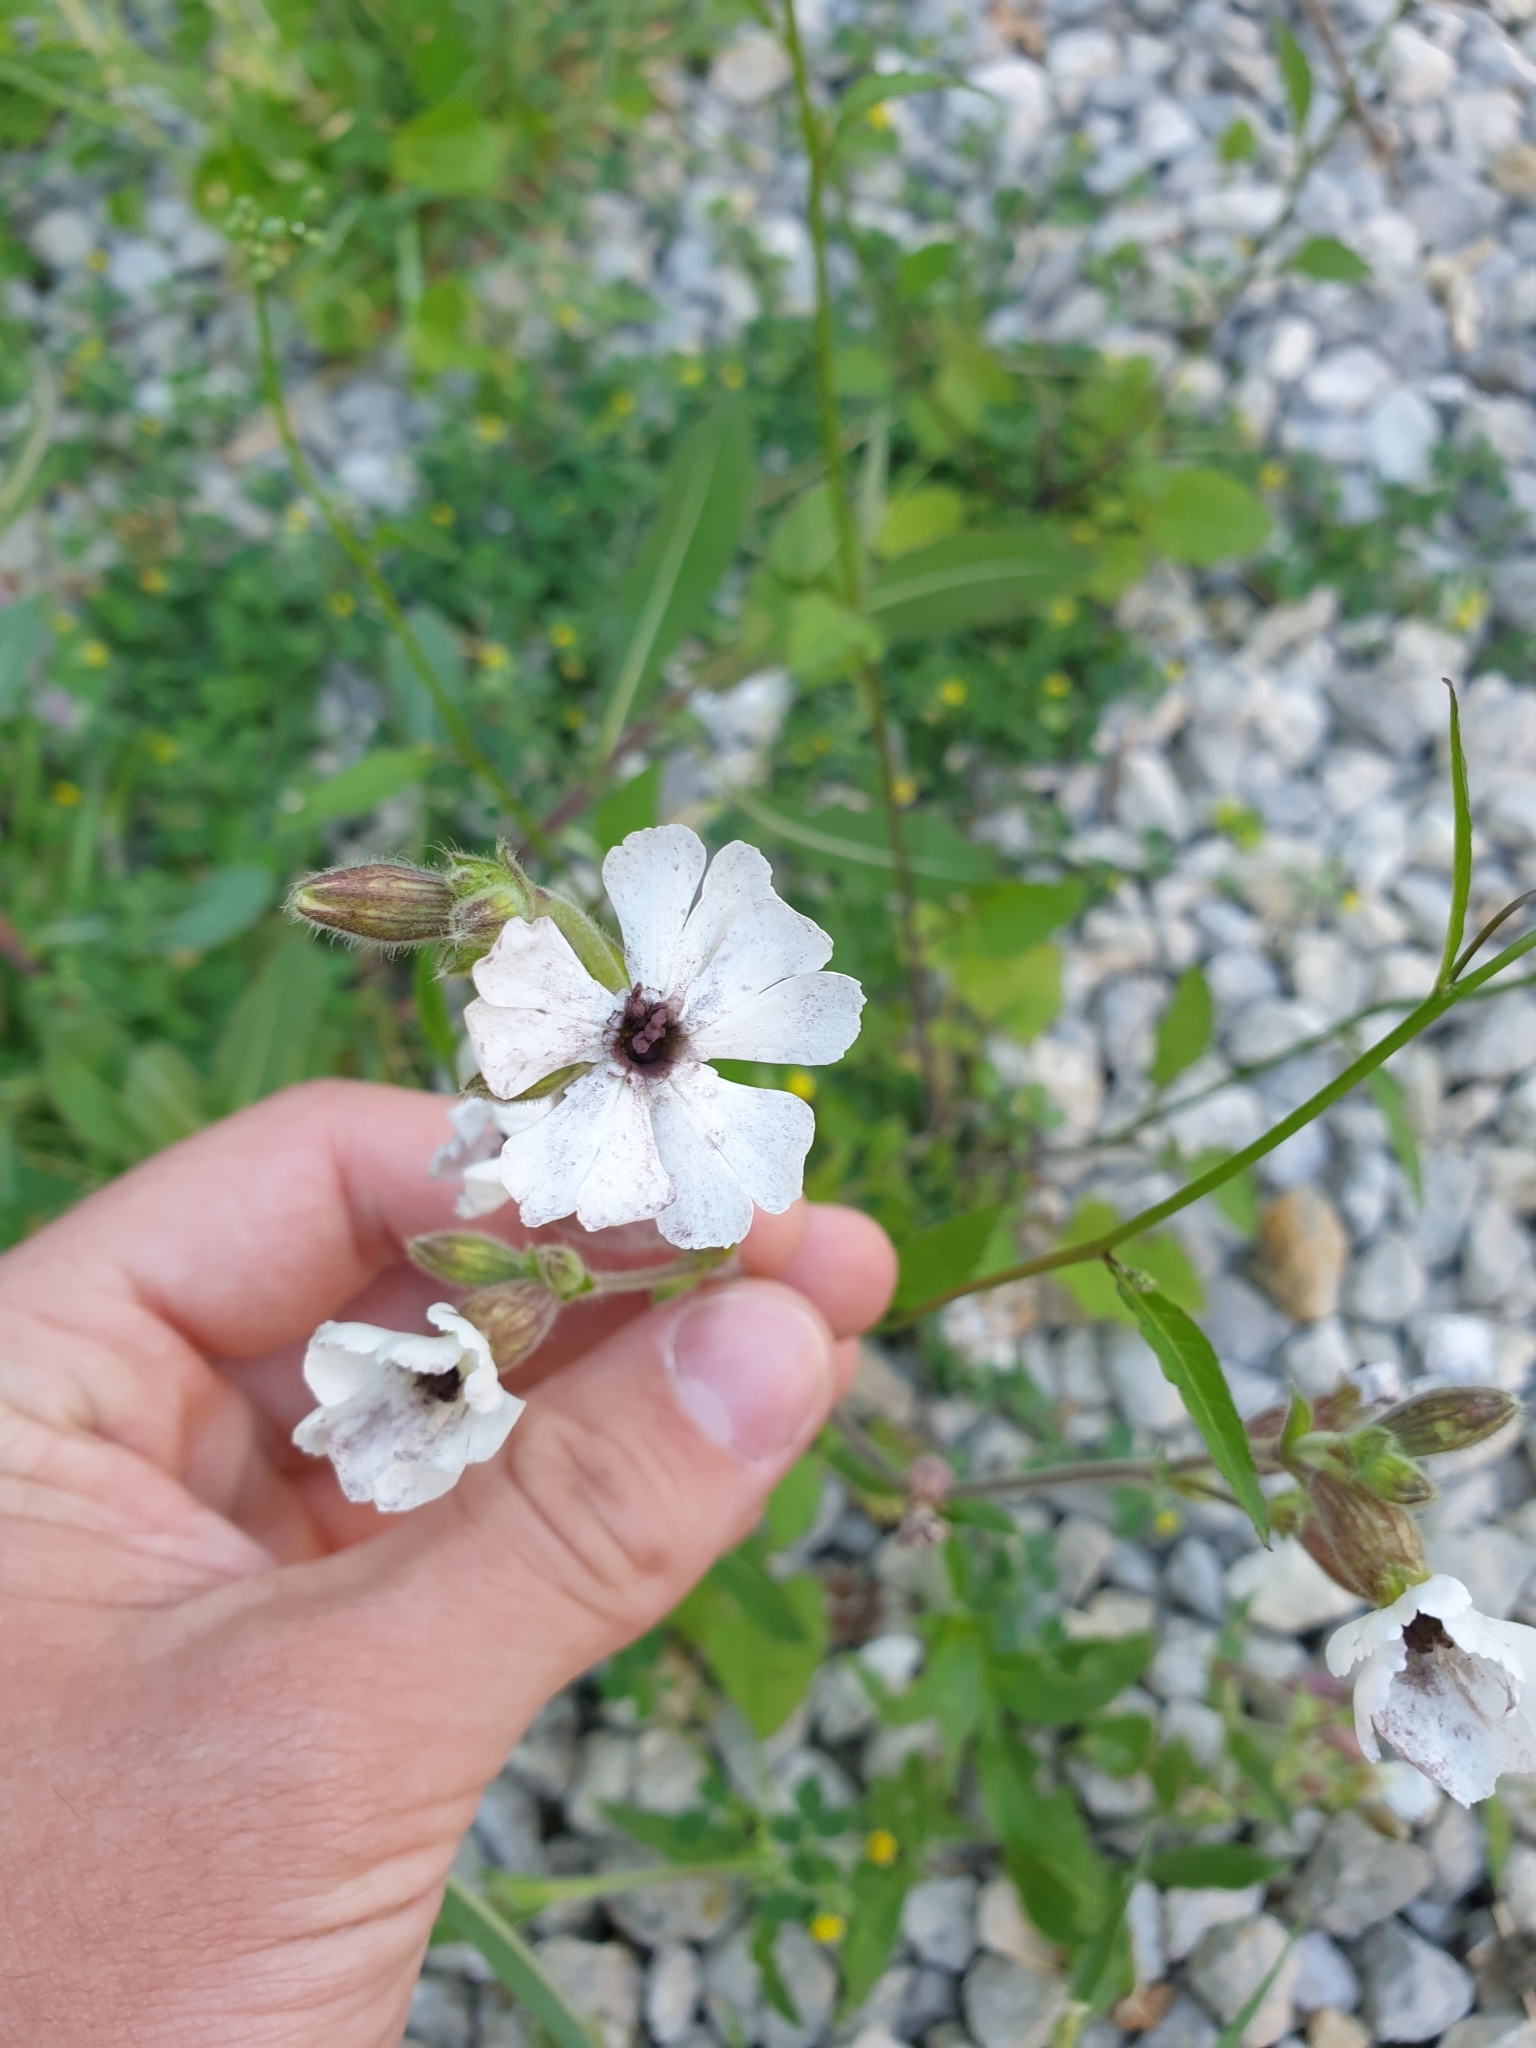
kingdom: Fungi
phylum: Basidiomycota
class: Microbotryomycetes
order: Microbotryales
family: Microbotryaceae
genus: Microbotryum
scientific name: Microbotryum lychnidis-dioicae
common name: Campion anther smut
